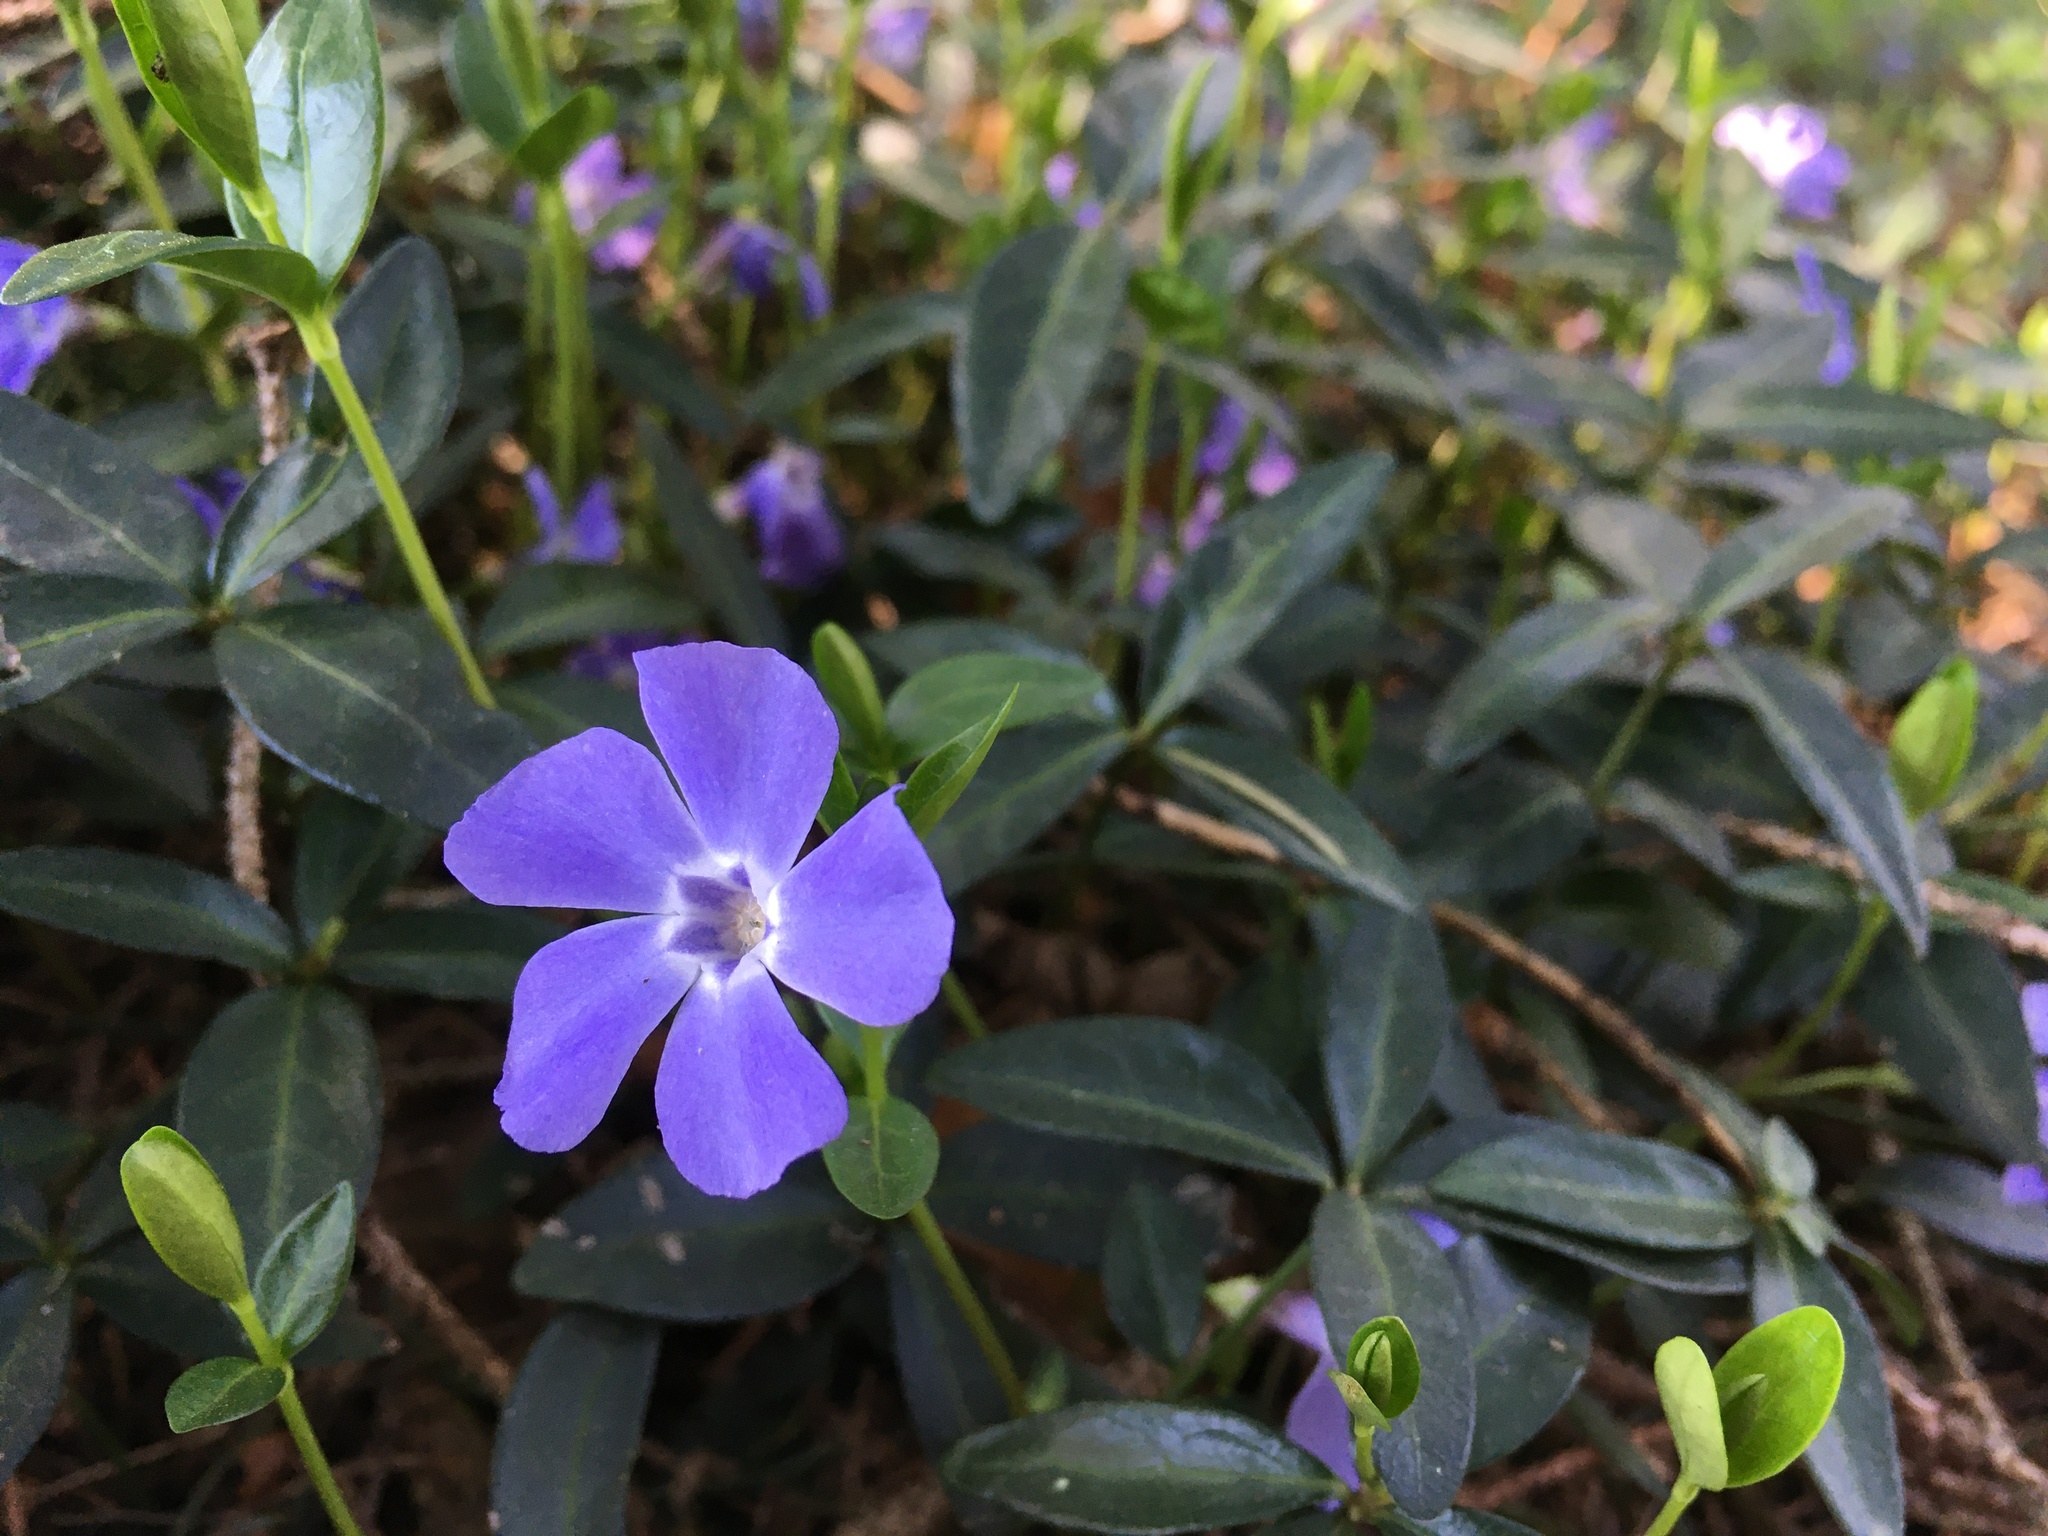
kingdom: Plantae
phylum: Tracheophyta
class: Magnoliopsida
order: Gentianales
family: Apocynaceae
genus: Vinca
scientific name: Vinca minor
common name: Lesser periwinkle
